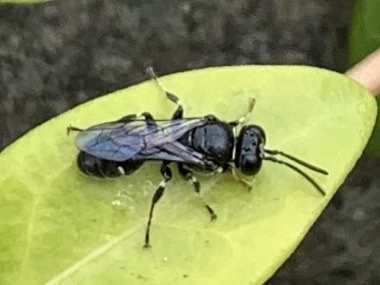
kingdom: Animalia
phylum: Arthropoda
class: Insecta
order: Hymenoptera
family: Crabronidae
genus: Clitemnestra
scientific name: Clitemnestra bipunctata
